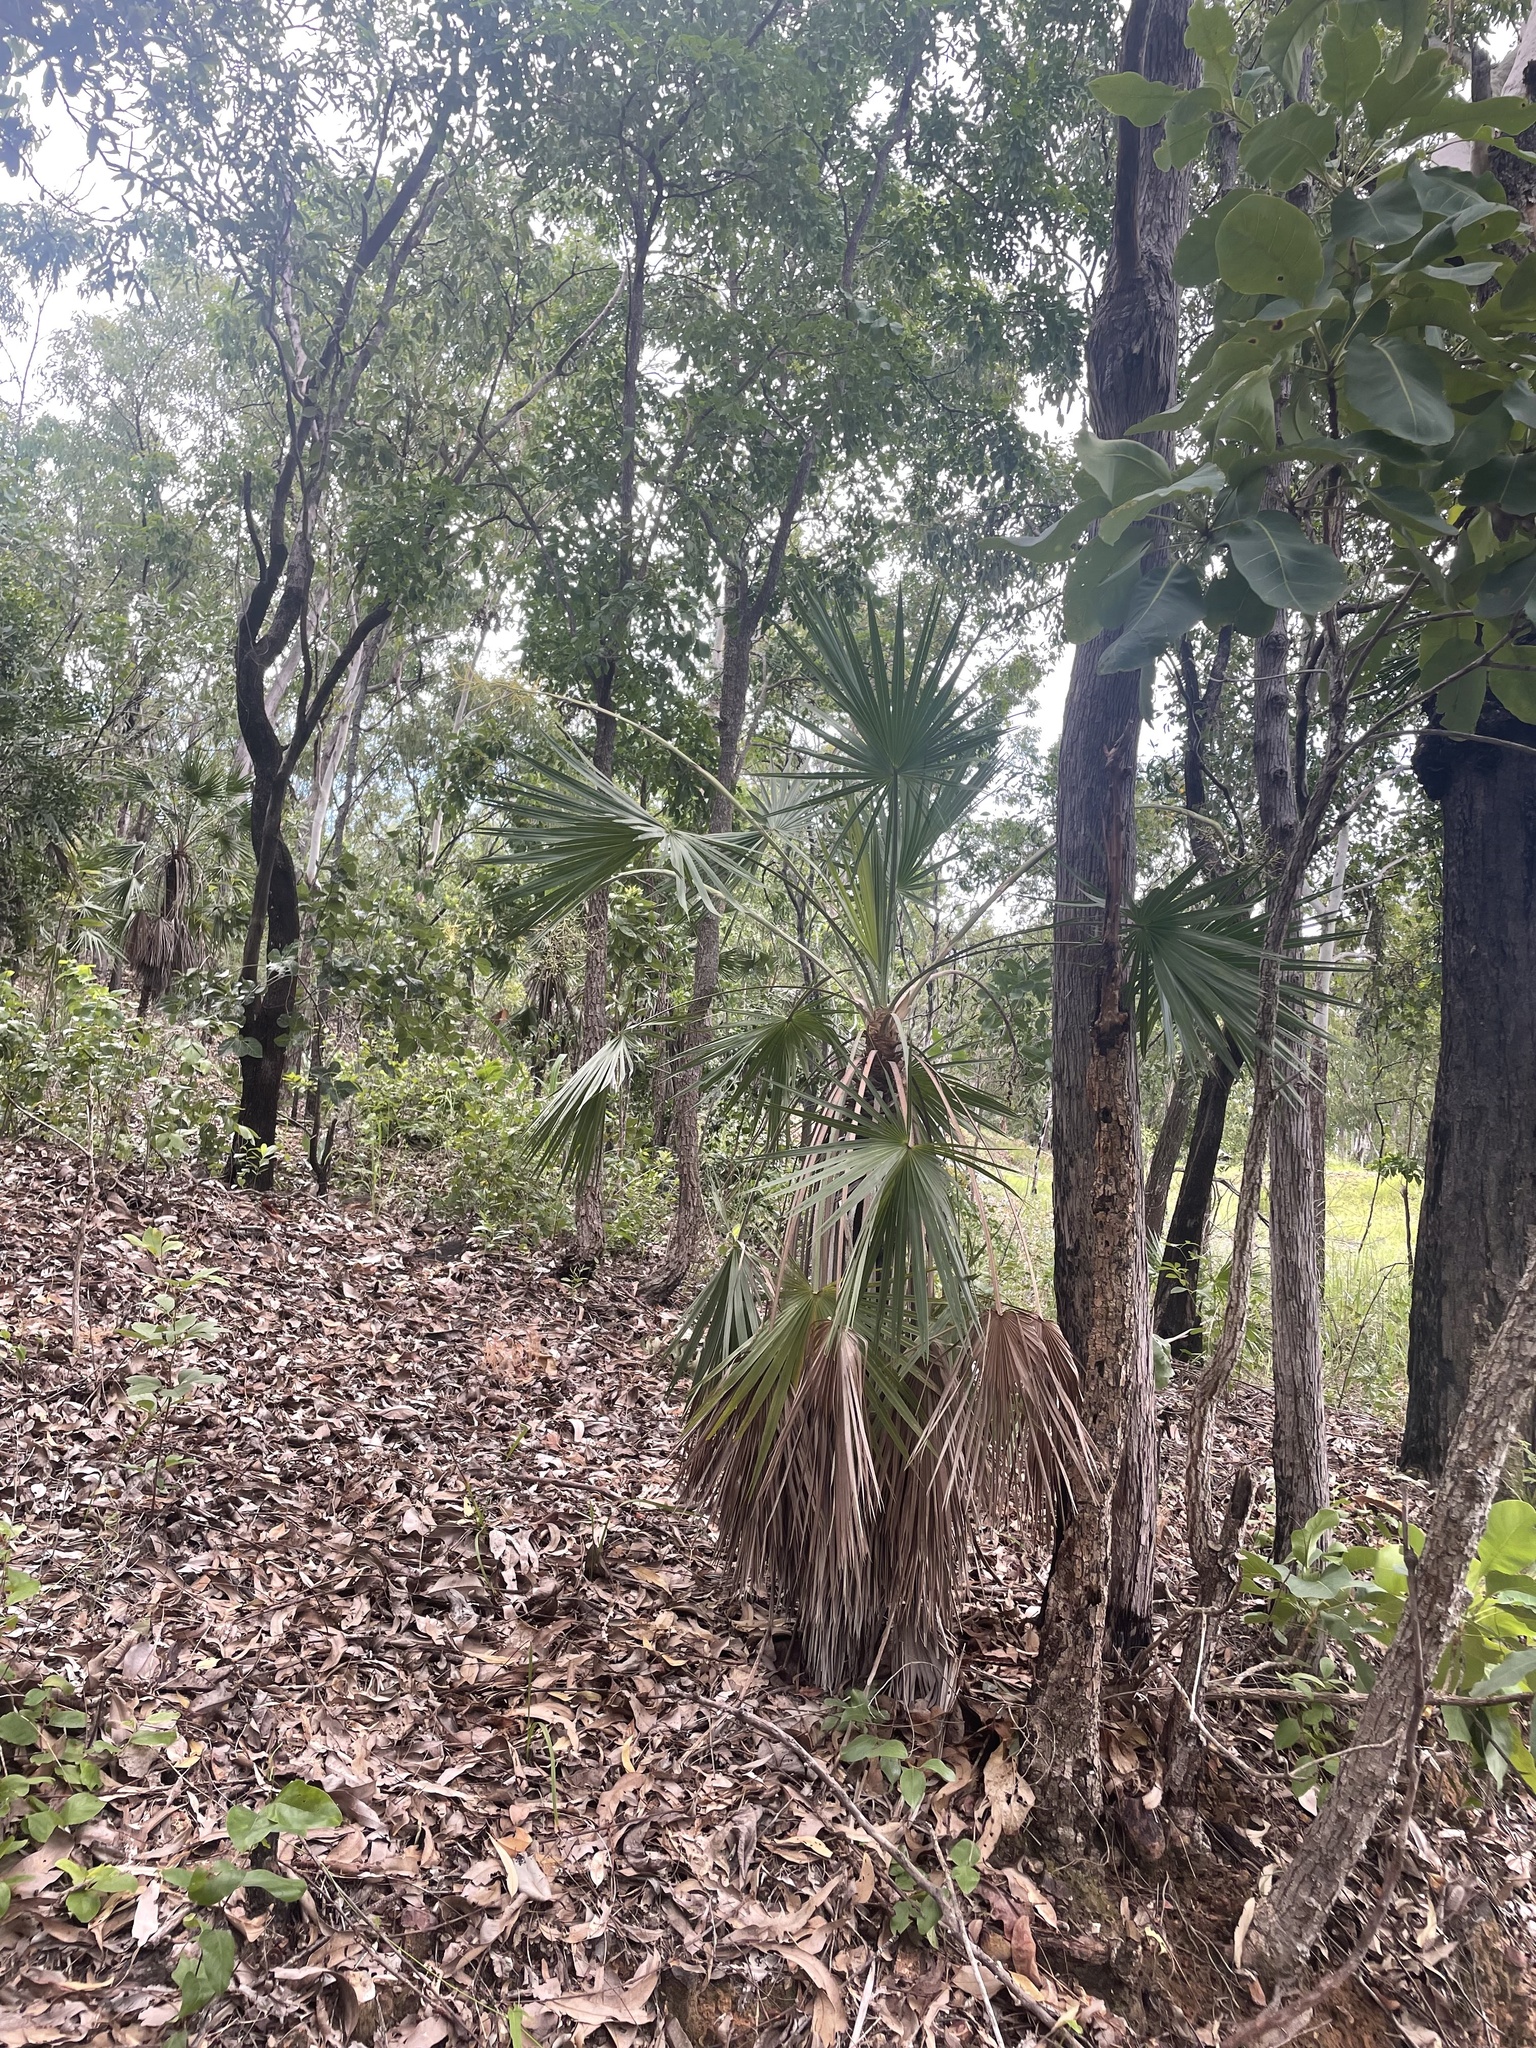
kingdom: Plantae
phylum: Tracheophyta
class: Liliopsida
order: Arecales
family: Arecaceae
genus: Livistona
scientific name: Livistona humilis
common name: Cabbage palm
